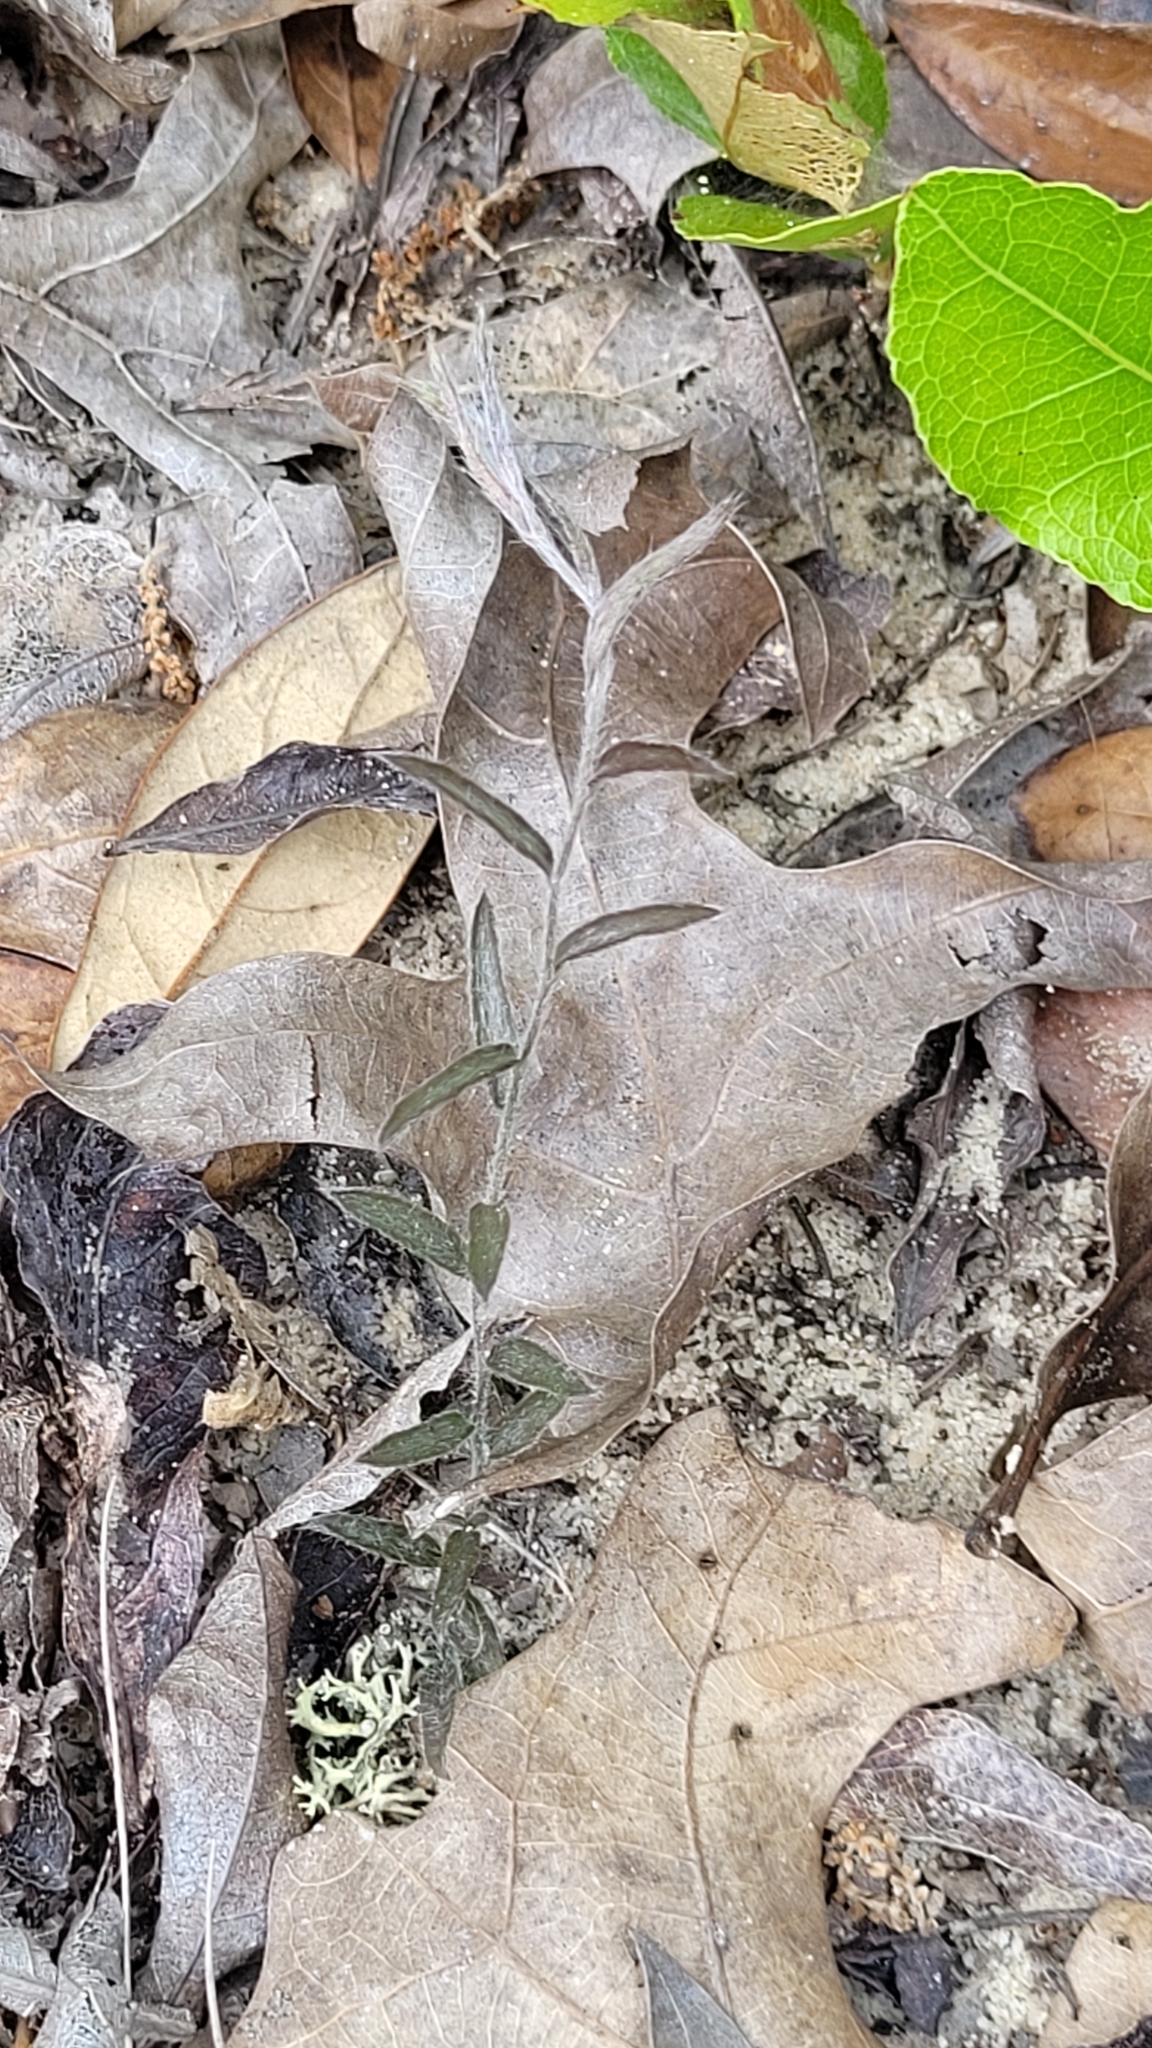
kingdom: Plantae
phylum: Tracheophyta
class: Magnoliopsida
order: Solanales
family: Convolvulaceae
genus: Stylisma
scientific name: Stylisma abdita
